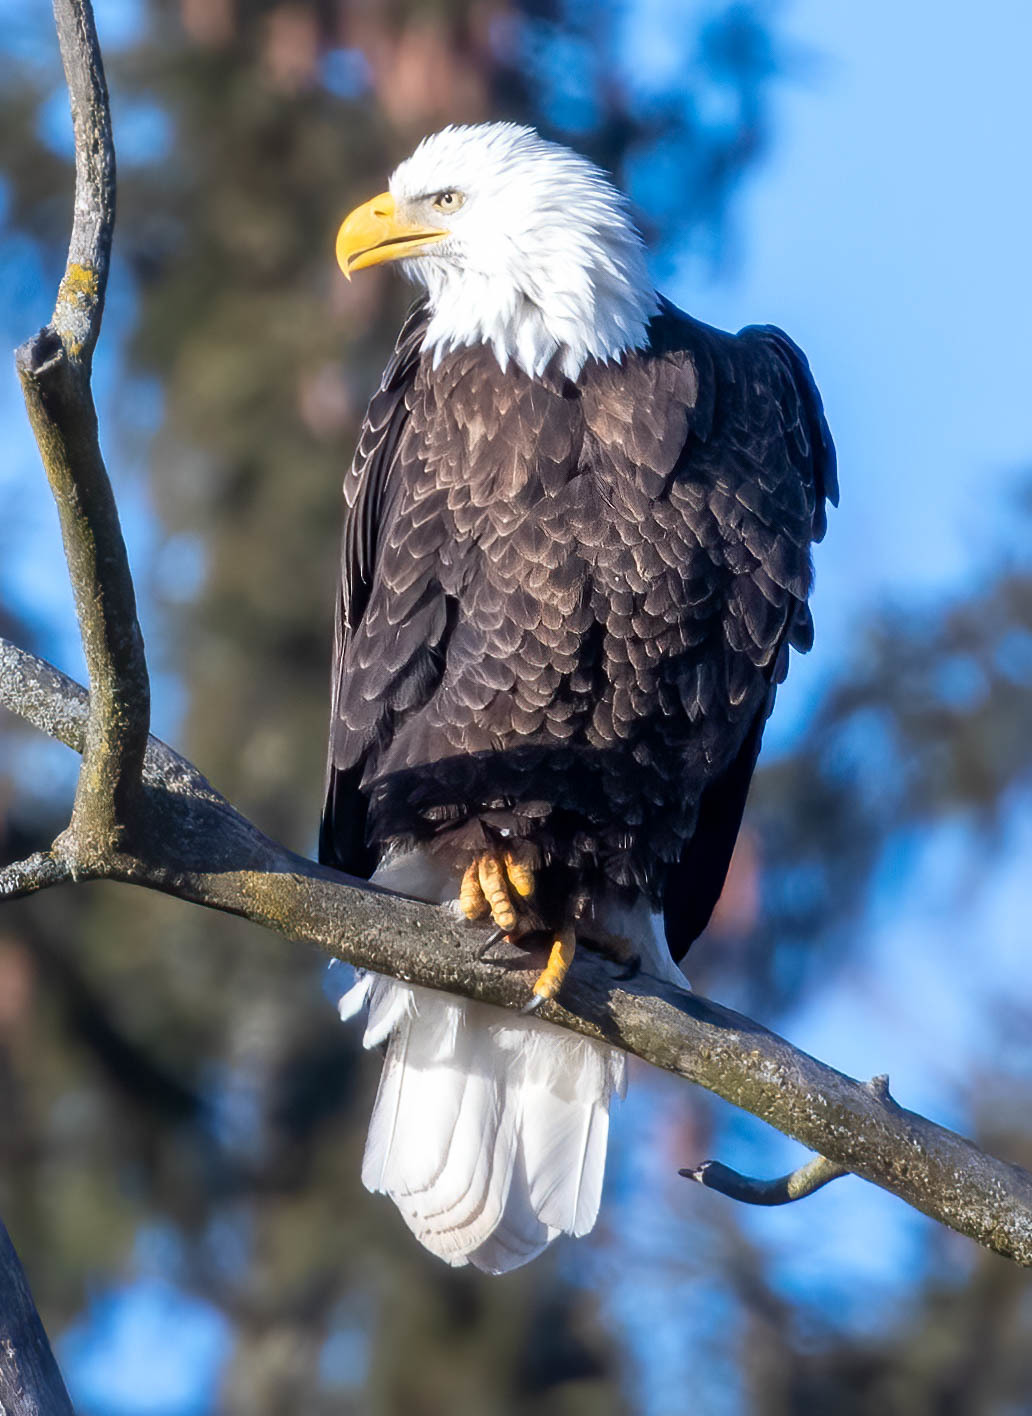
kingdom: Animalia
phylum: Chordata
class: Aves
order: Accipitriformes
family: Accipitridae
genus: Haliaeetus
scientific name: Haliaeetus leucocephalus
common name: Bald eagle
